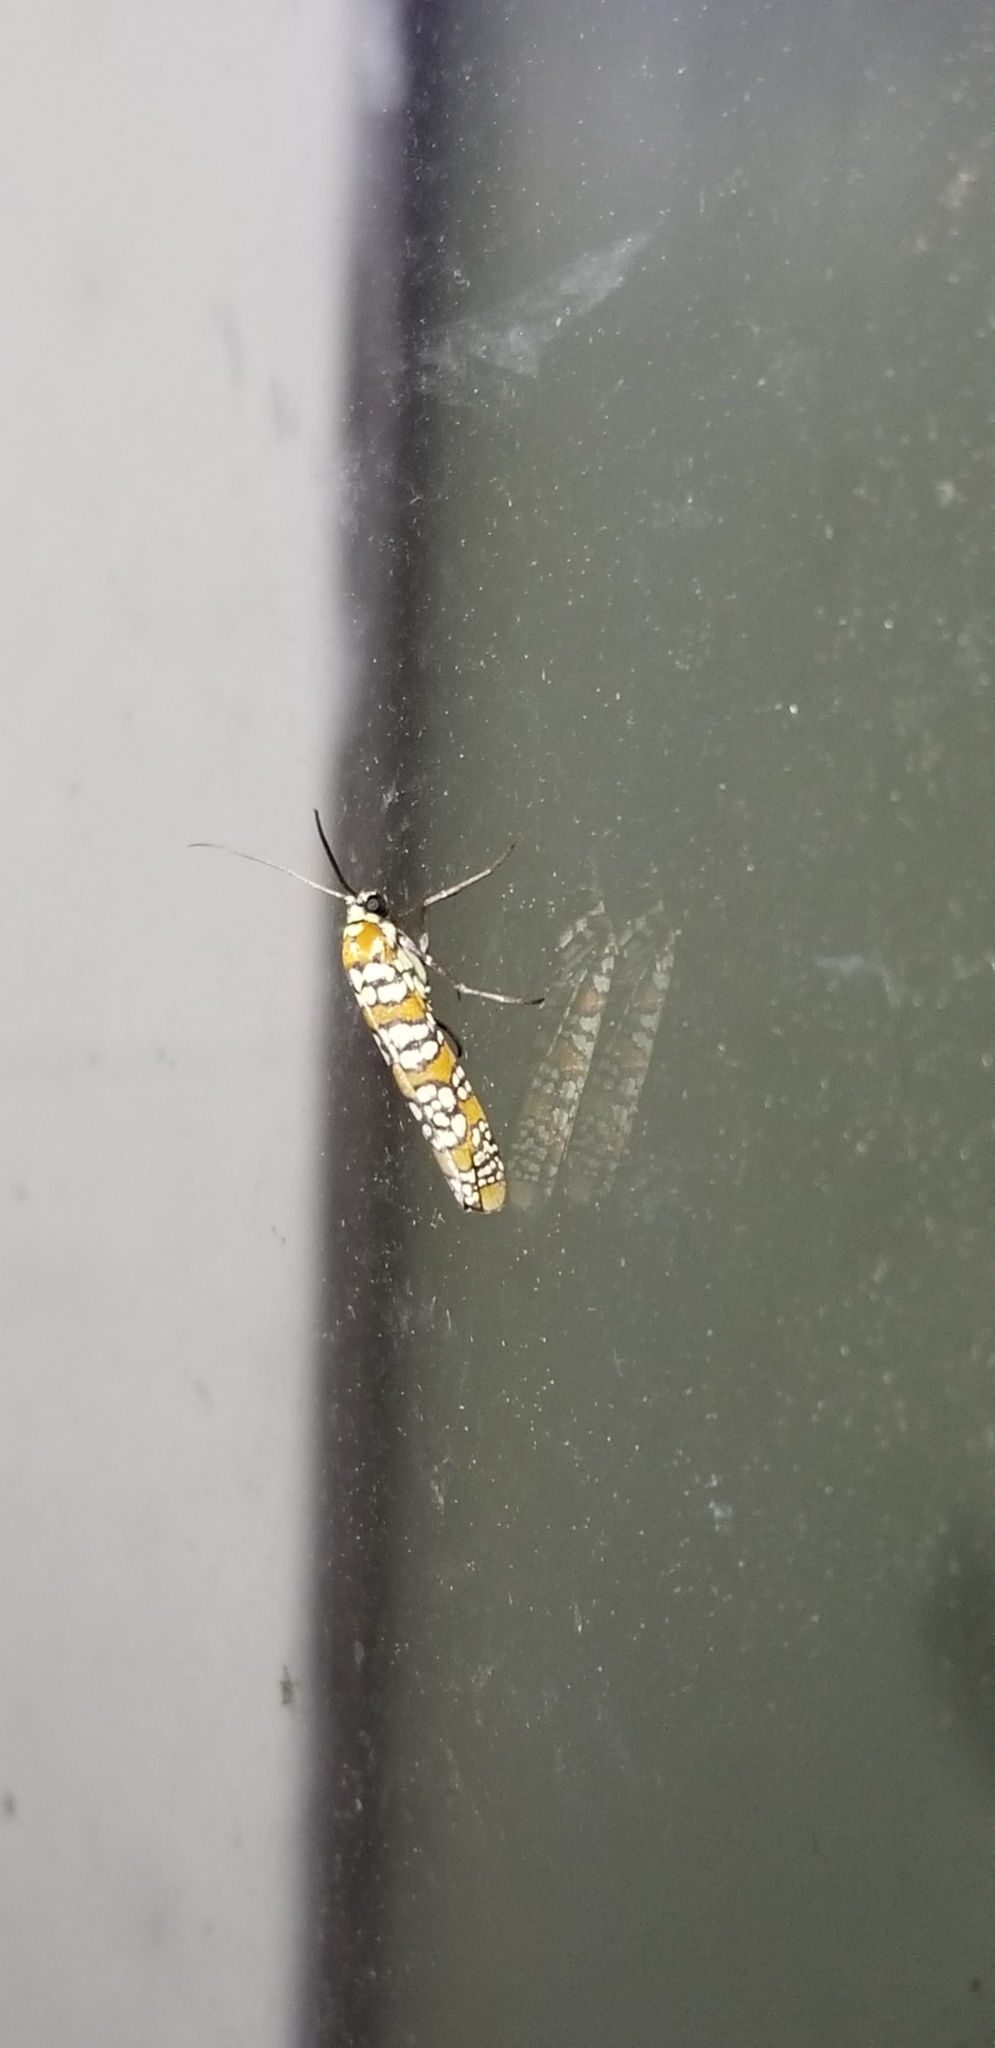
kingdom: Animalia
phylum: Arthropoda
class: Insecta
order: Lepidoptera
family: Attevidae
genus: Atteva
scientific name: Atteva punctella
